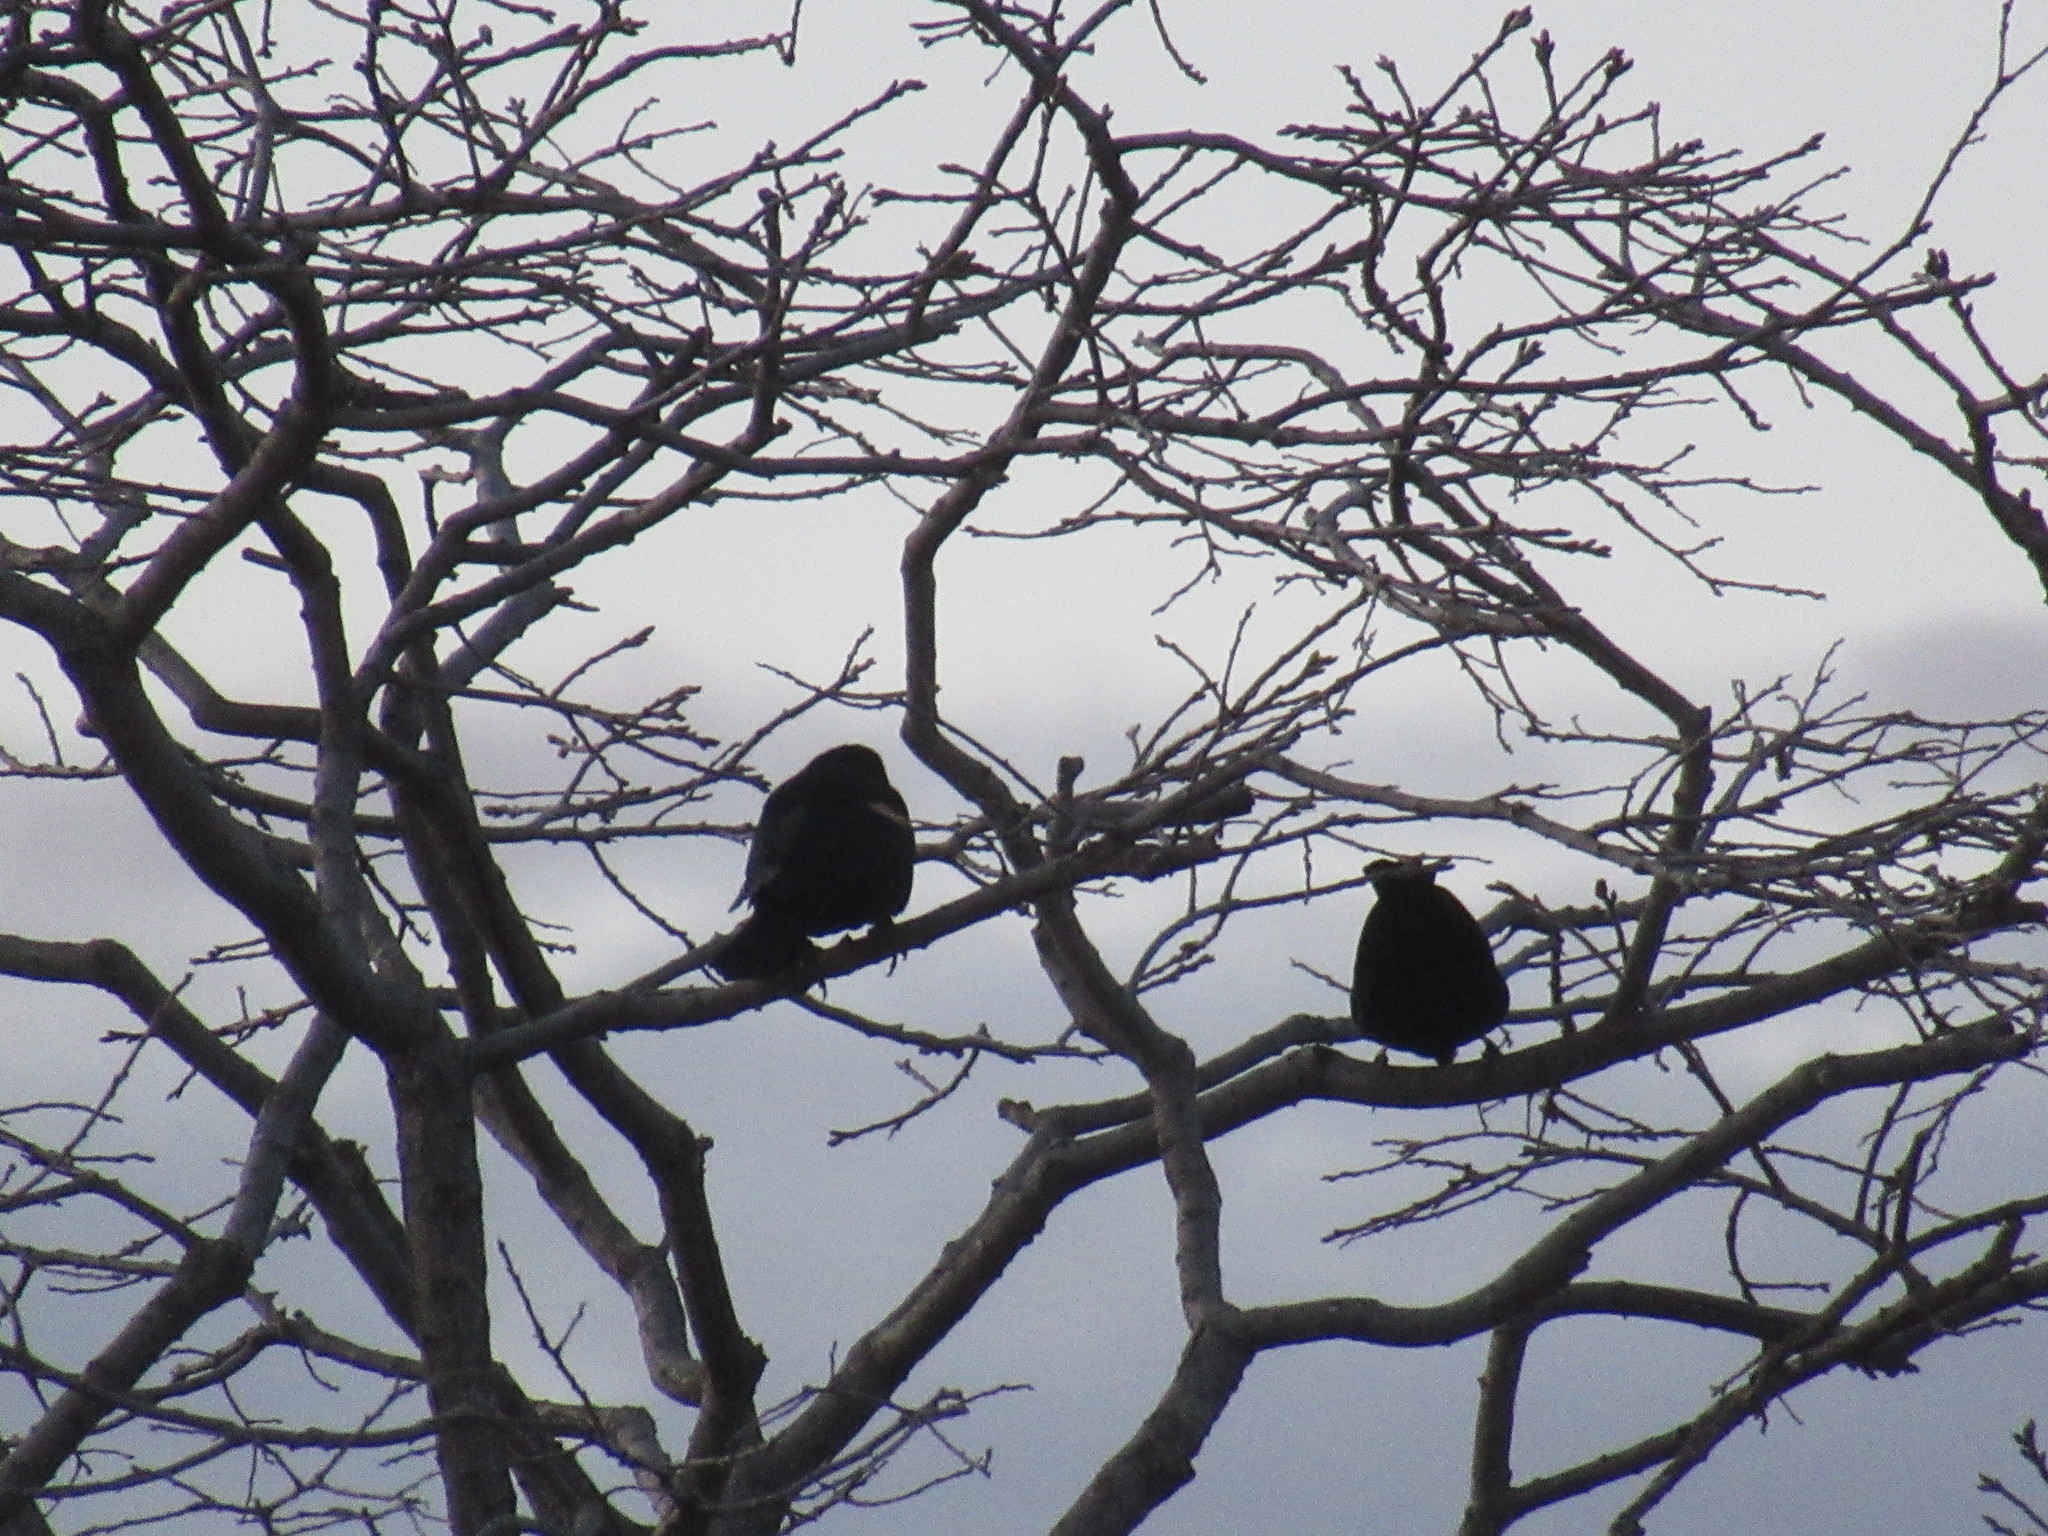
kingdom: Animalia
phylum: Chordata
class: Aves
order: Passeriformes
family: Icteridae
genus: Agelaius
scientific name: Agelaius phoeniceus
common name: Red-winged blackbird
